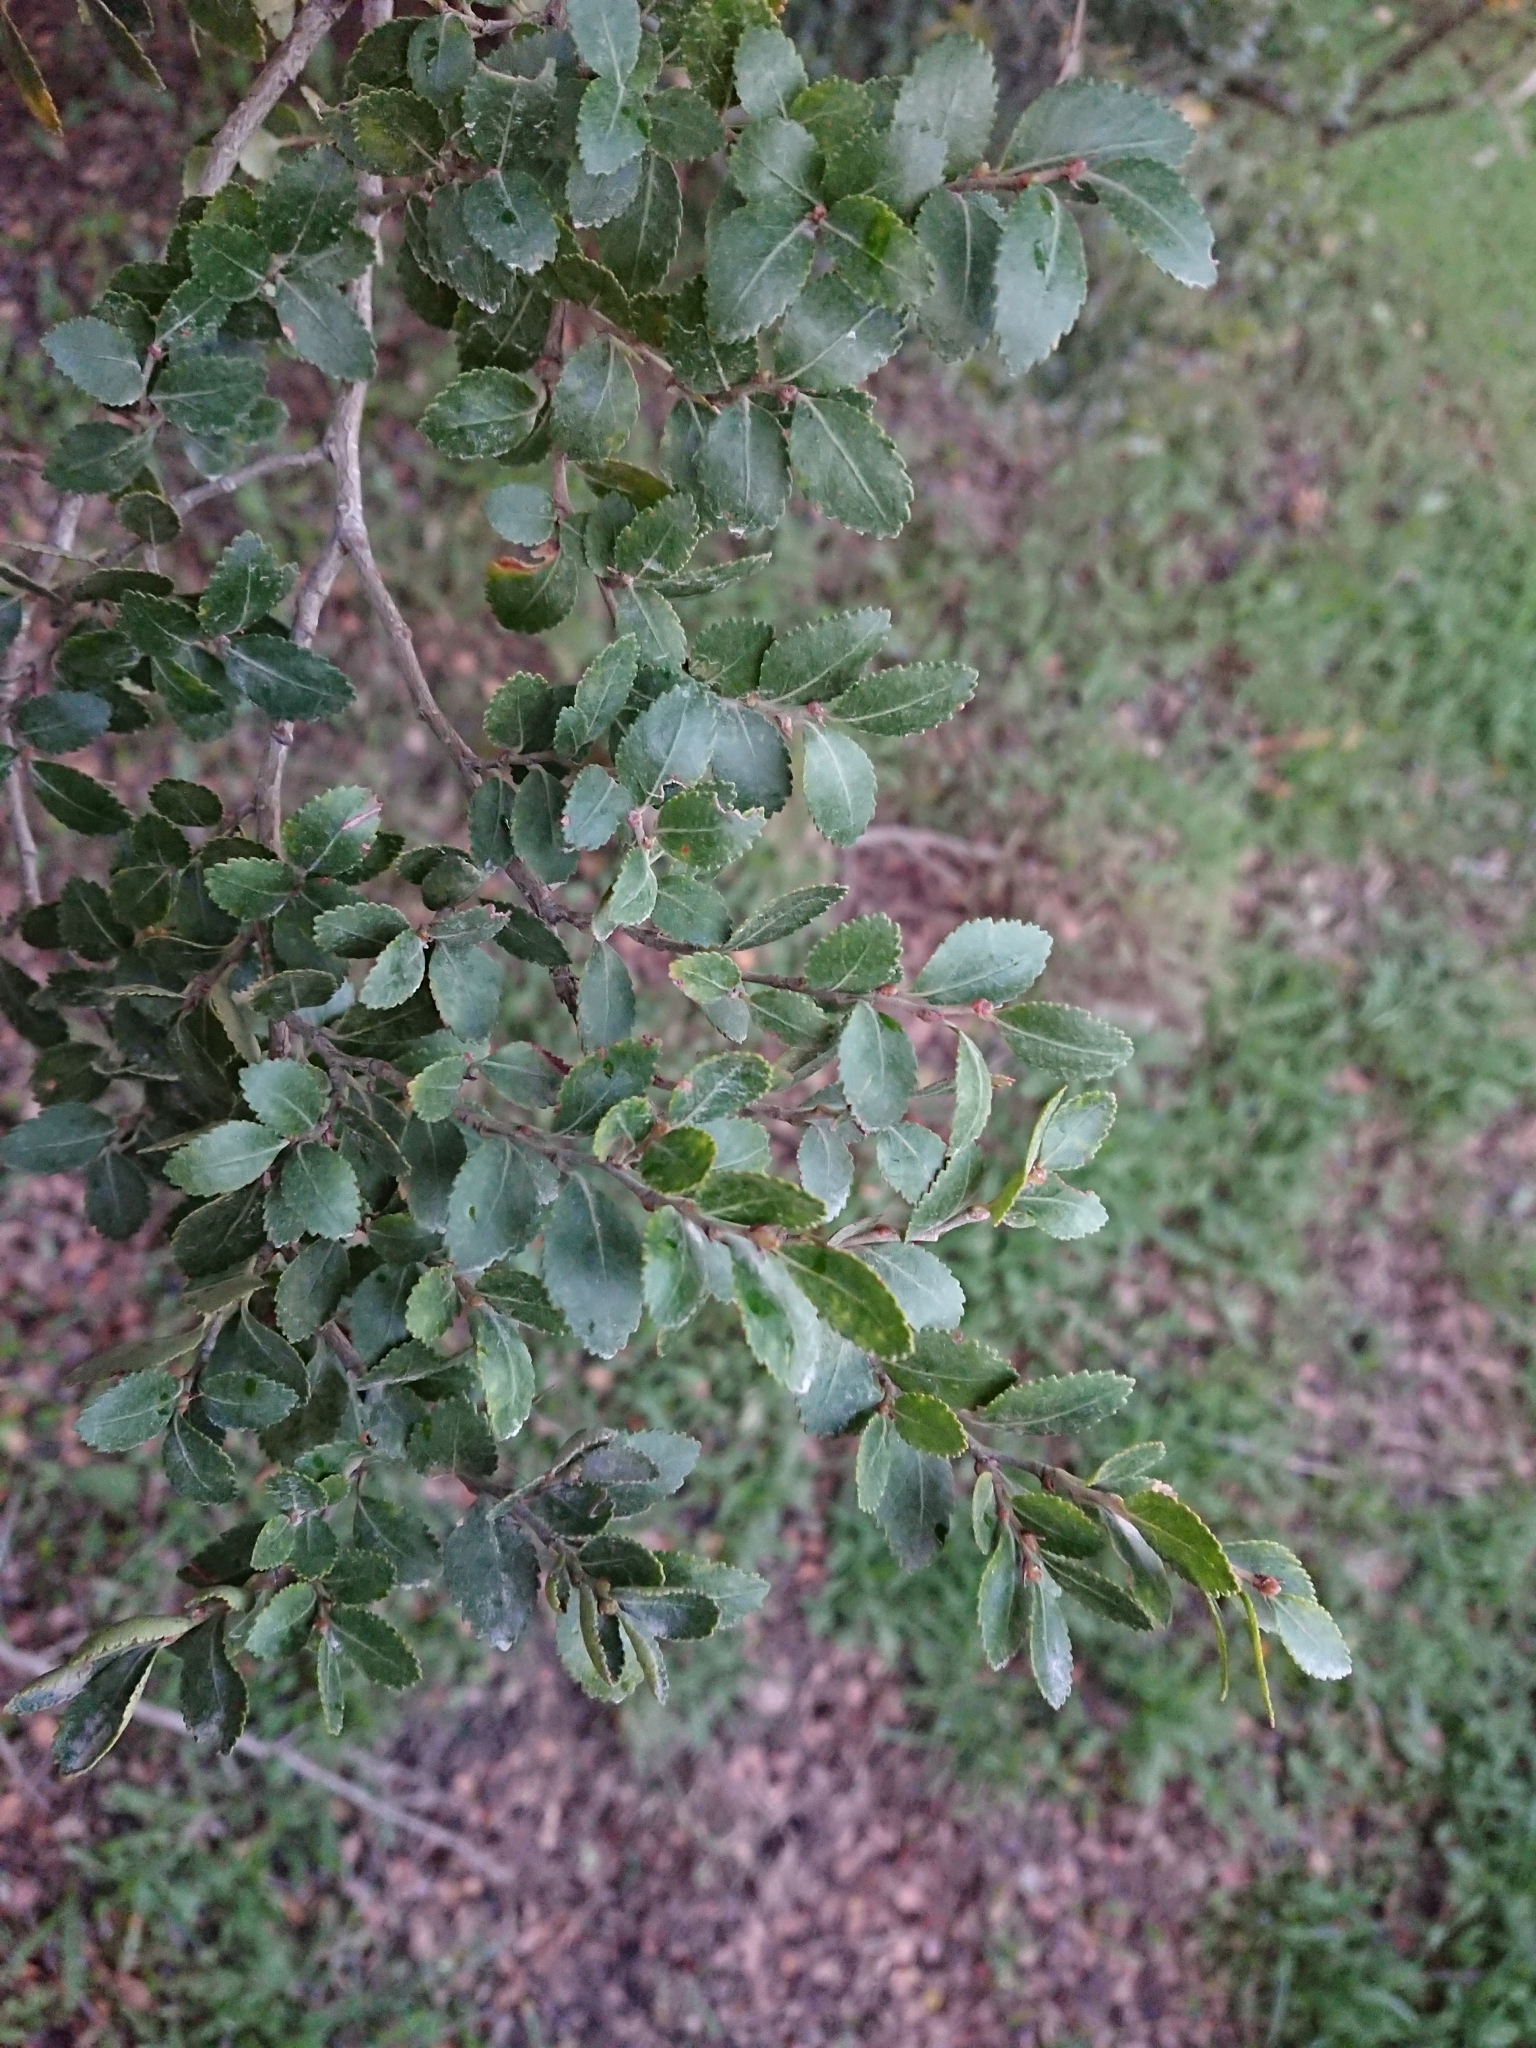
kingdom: Plantae
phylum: Tracheophyta
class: Magnoliopsida
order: Fagales
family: Nothofagaceae
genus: Nothofagus
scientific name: Nothofagus betuloides
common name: Magellan's beech
